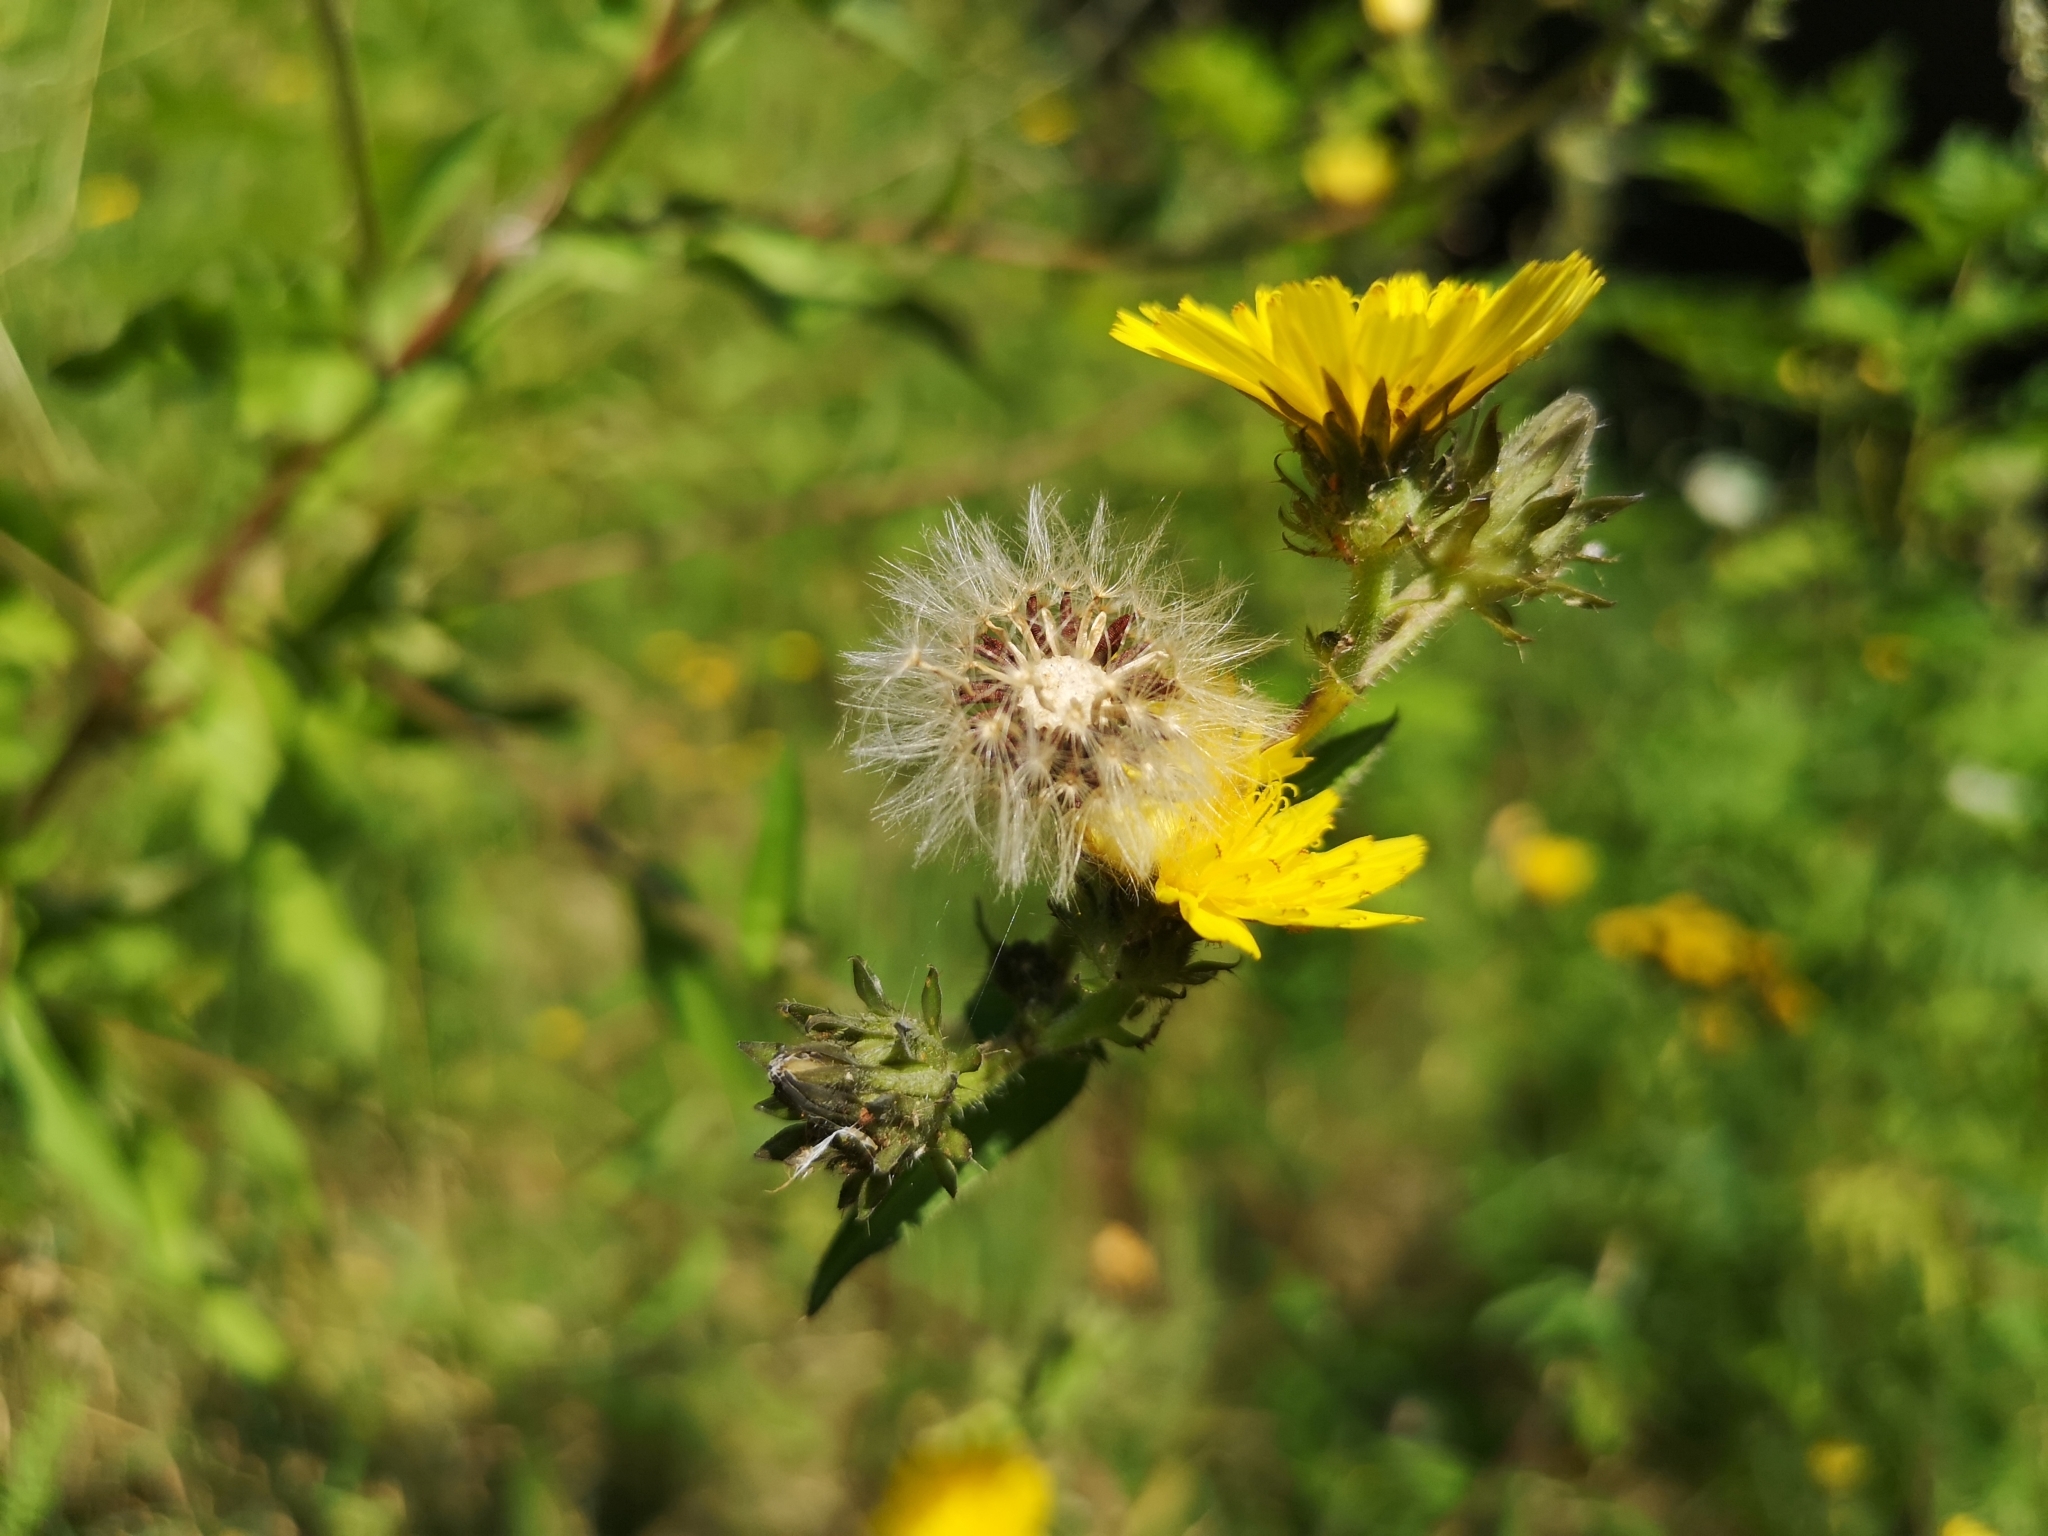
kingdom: Plantae
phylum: Tracheophyta
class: Magnoliopsida
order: Asterales
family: Asteraceae
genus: Picris
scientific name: Picris hieracioides
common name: Hawkweed oxtongue
